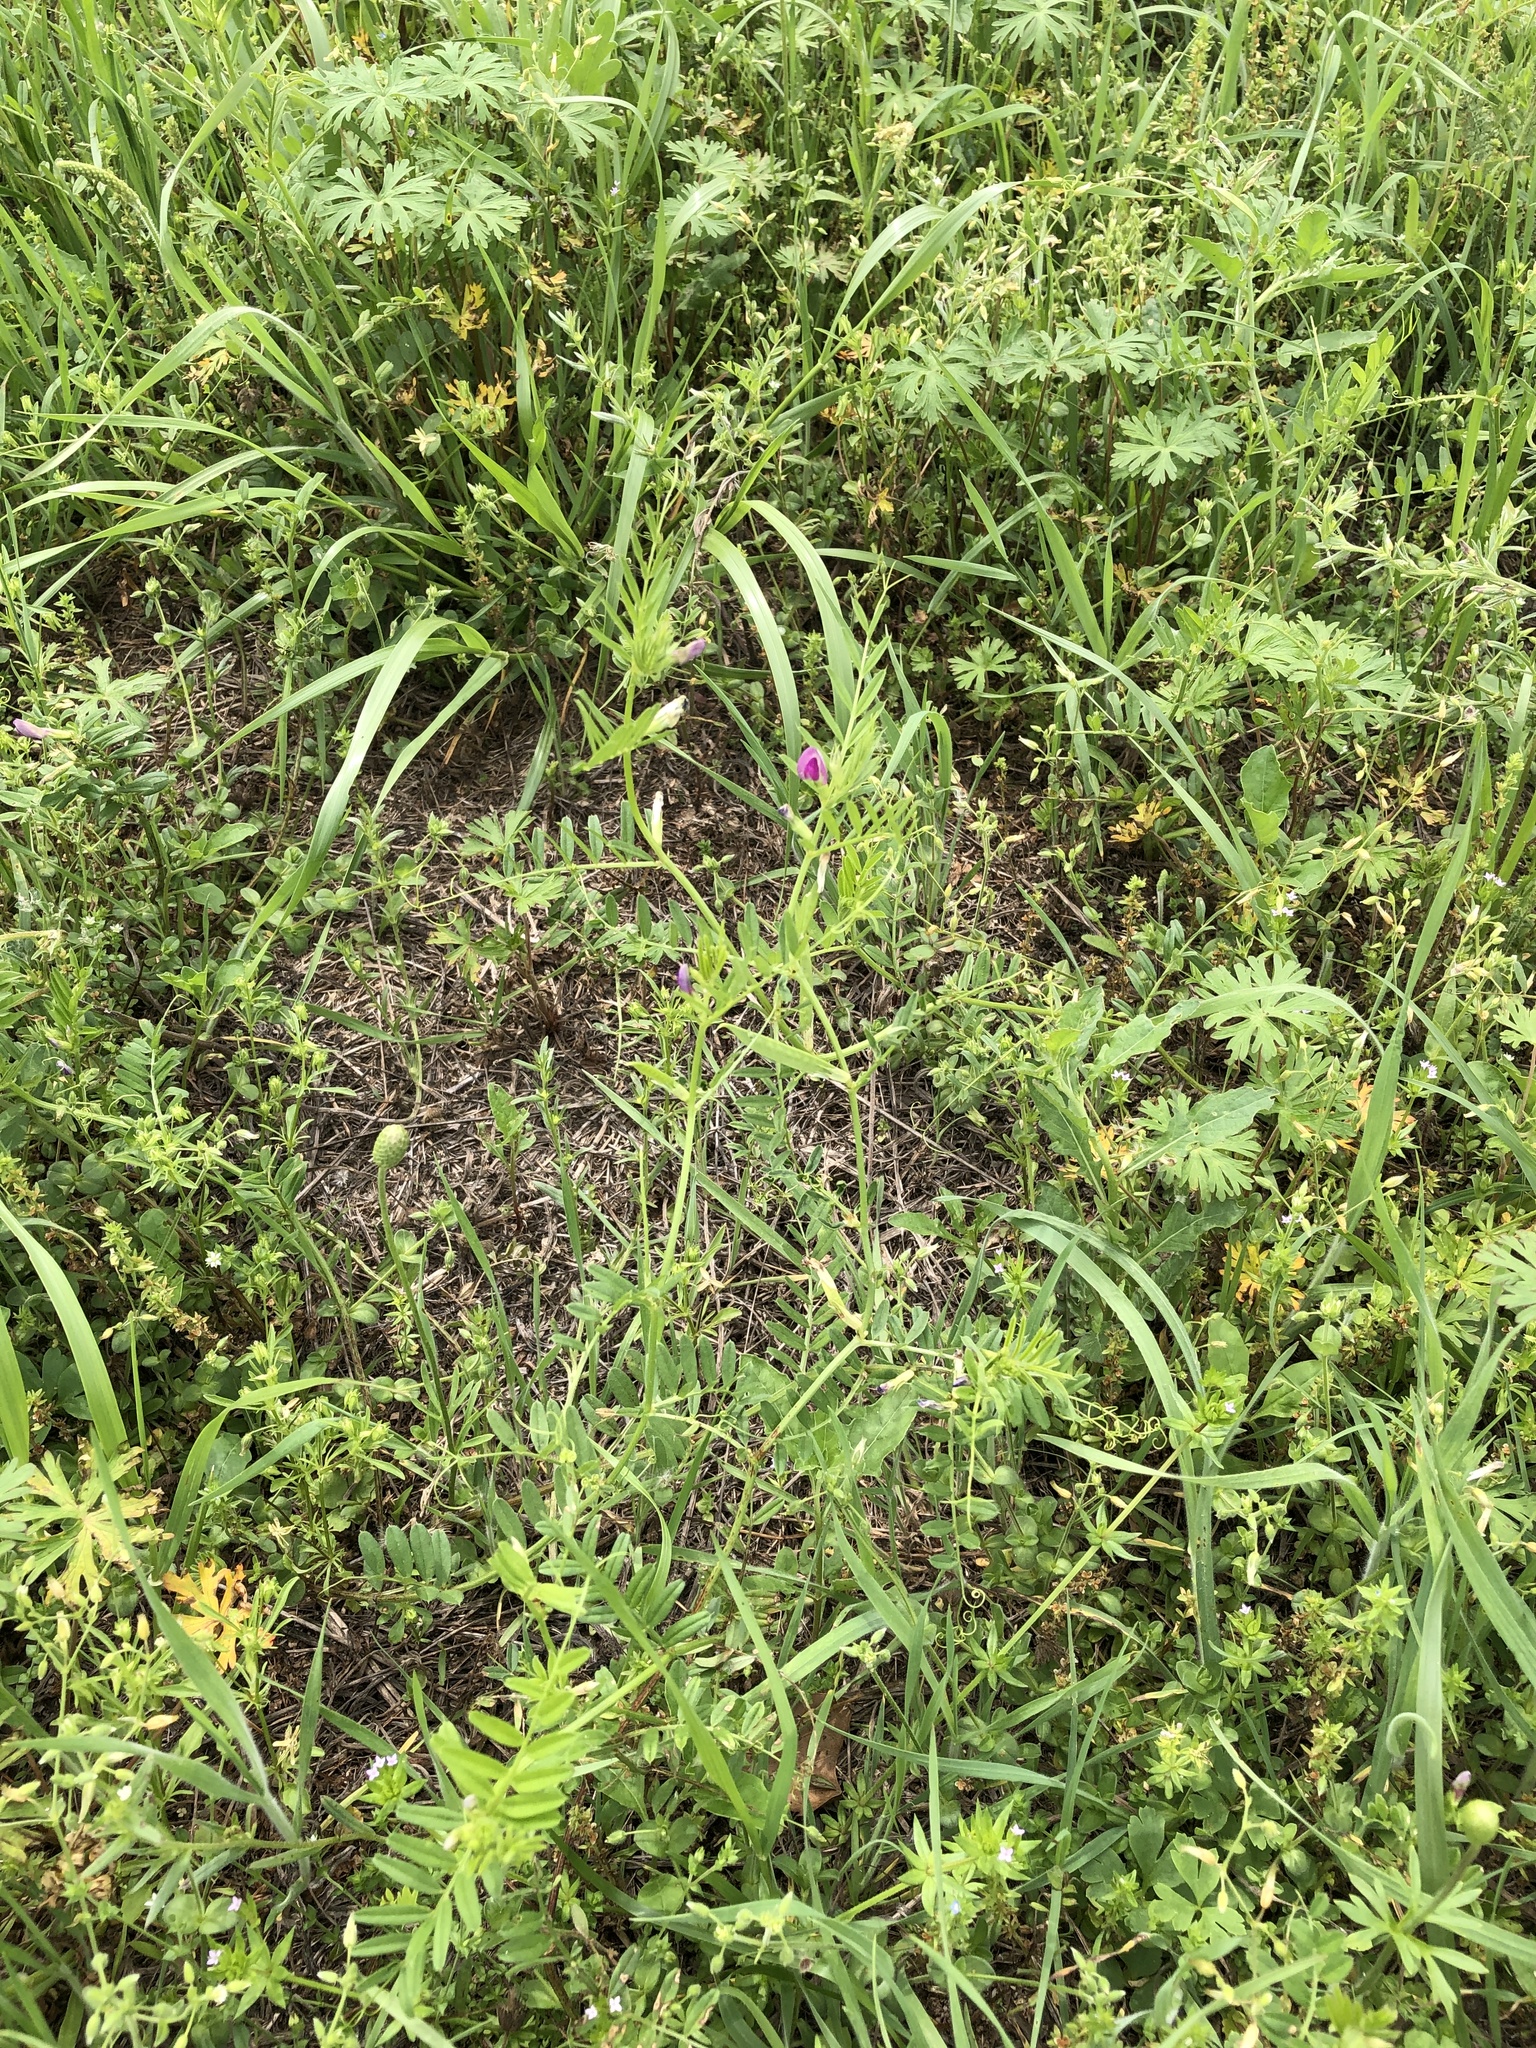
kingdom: Plantae
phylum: Tracheophyta
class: Magnoliopsida
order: Fabales
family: Fabaceae
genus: Vicia
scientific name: Vicia sativa
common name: Garden vetch
